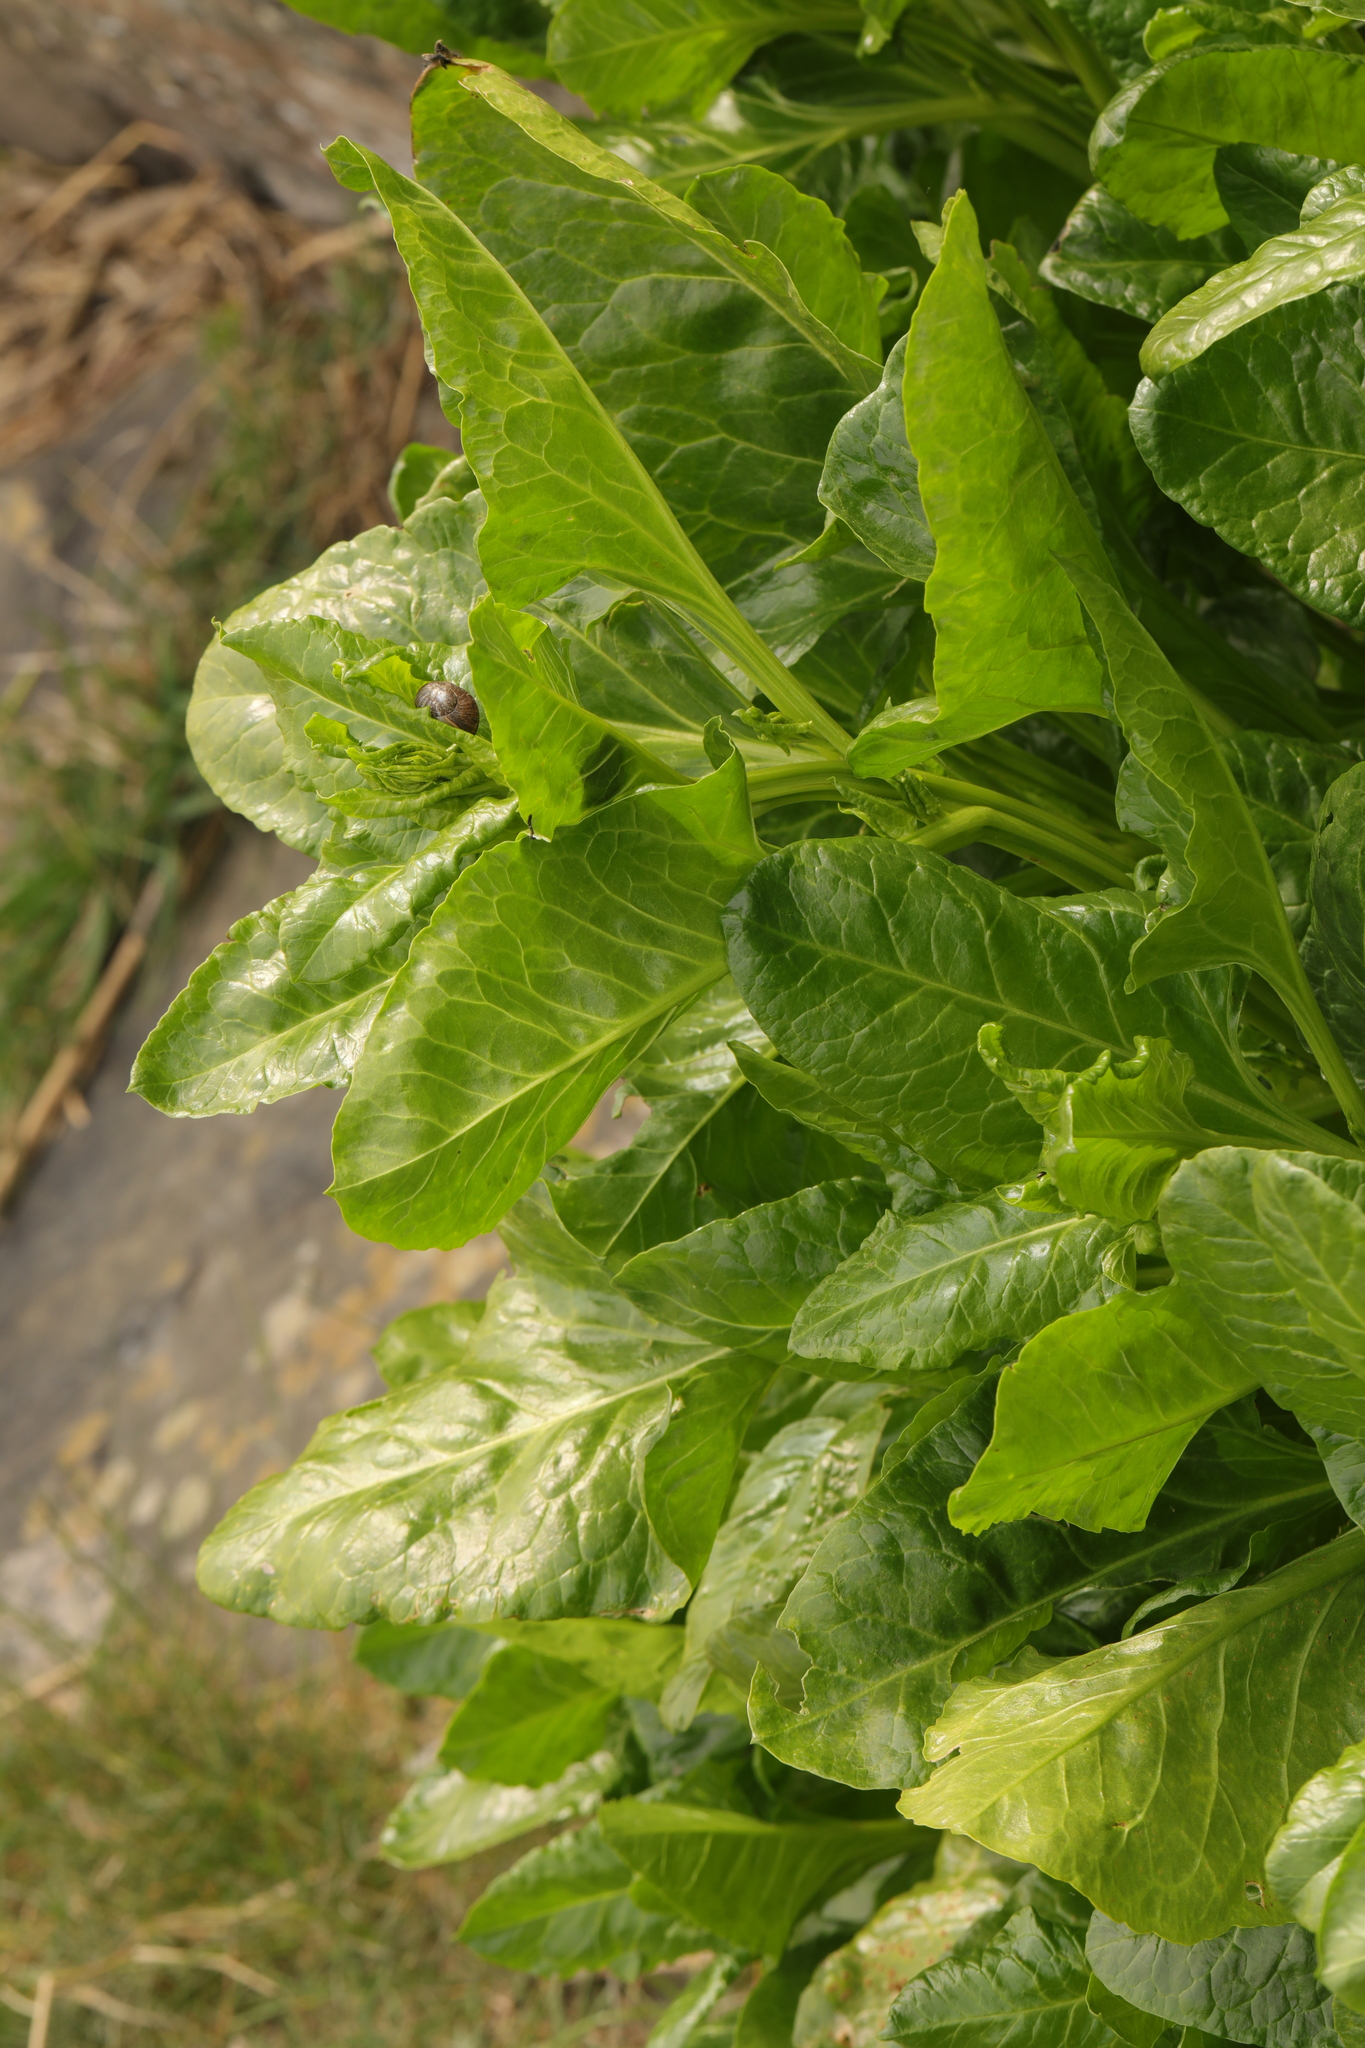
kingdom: Plantae
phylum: Tracheophyta
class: Magnoliopsida
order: Caryophyllales
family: Amaranthaceae
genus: Beta
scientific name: Beta vulgaris
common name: Beet
